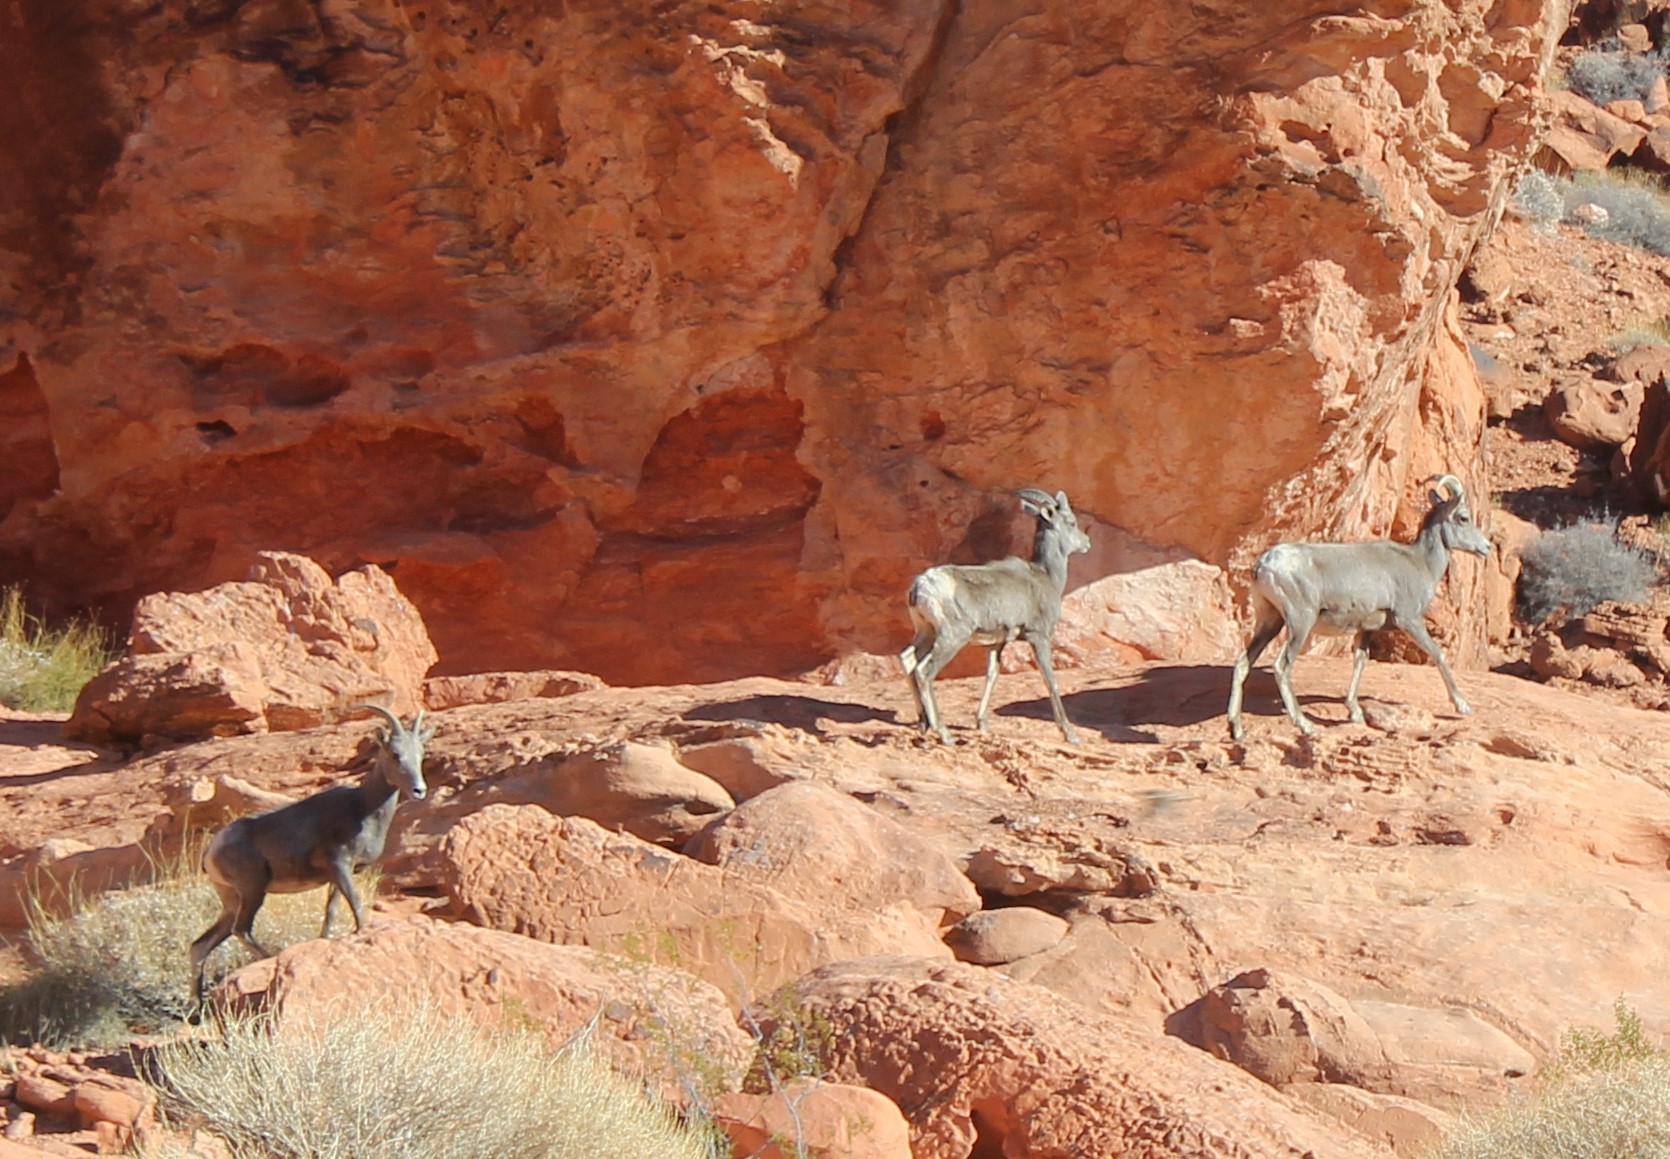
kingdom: Animalia
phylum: Chordata
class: Mammalia
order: Artiodactyla
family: Bovidae
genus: Ovis
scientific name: Ovis canadensis
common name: Bighorn sheep
